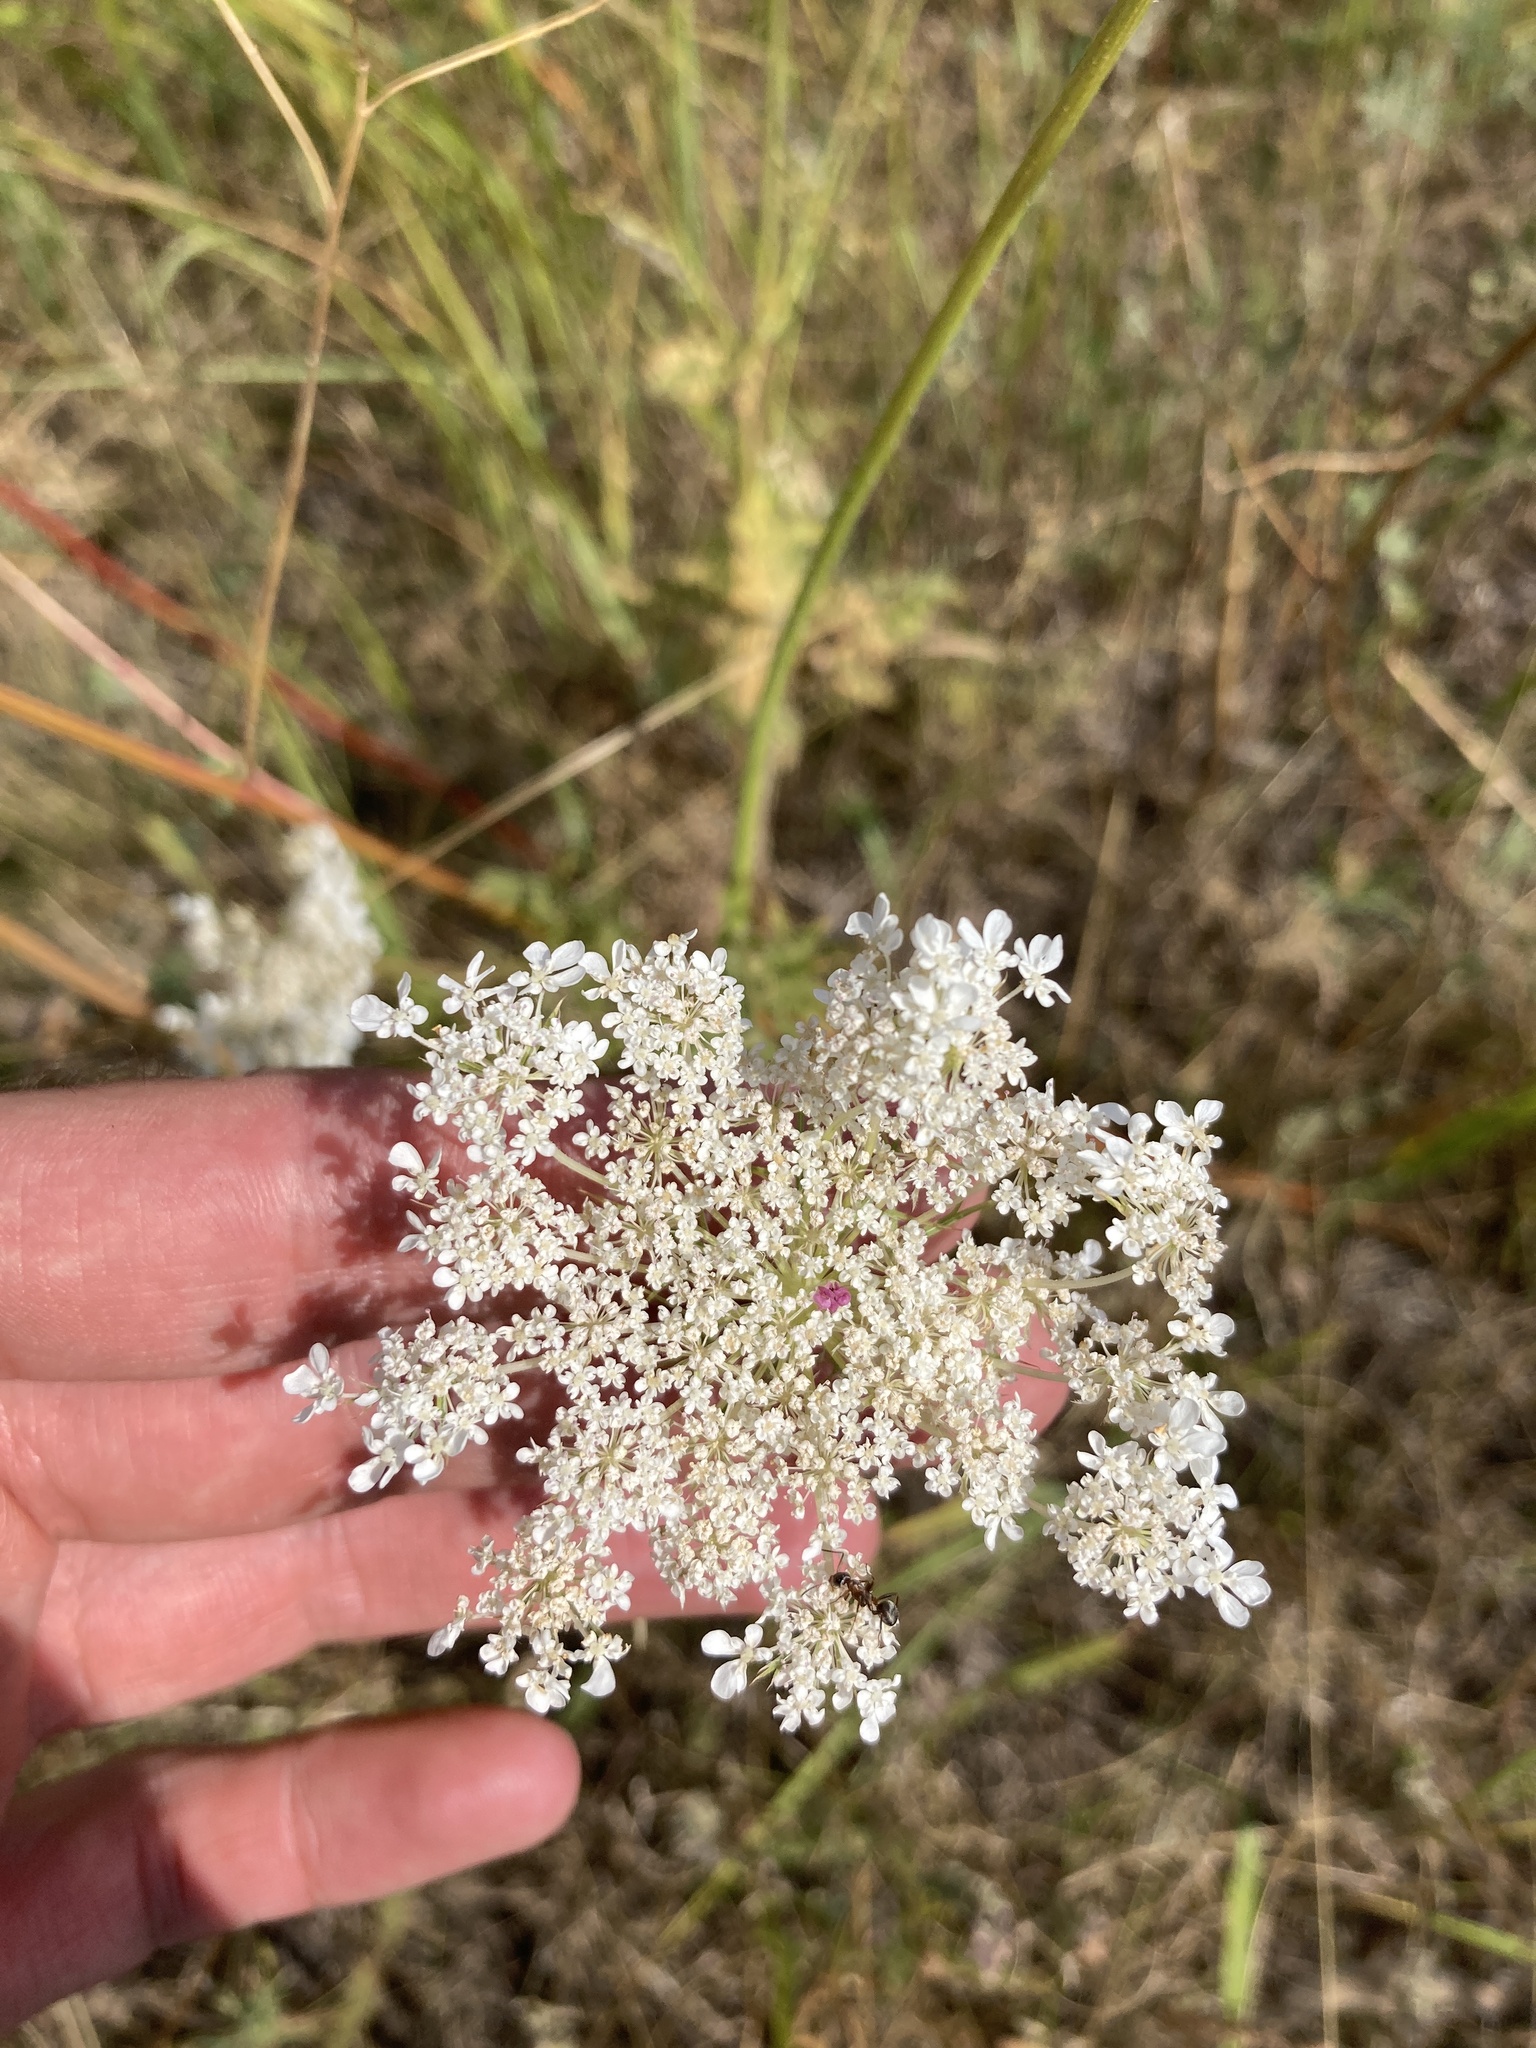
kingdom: Plantae
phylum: Tracheophyta
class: Magnoliopsida
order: Apiales
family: Apiaceae
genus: Daucus
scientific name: Daucus carota
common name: Wild carrot
